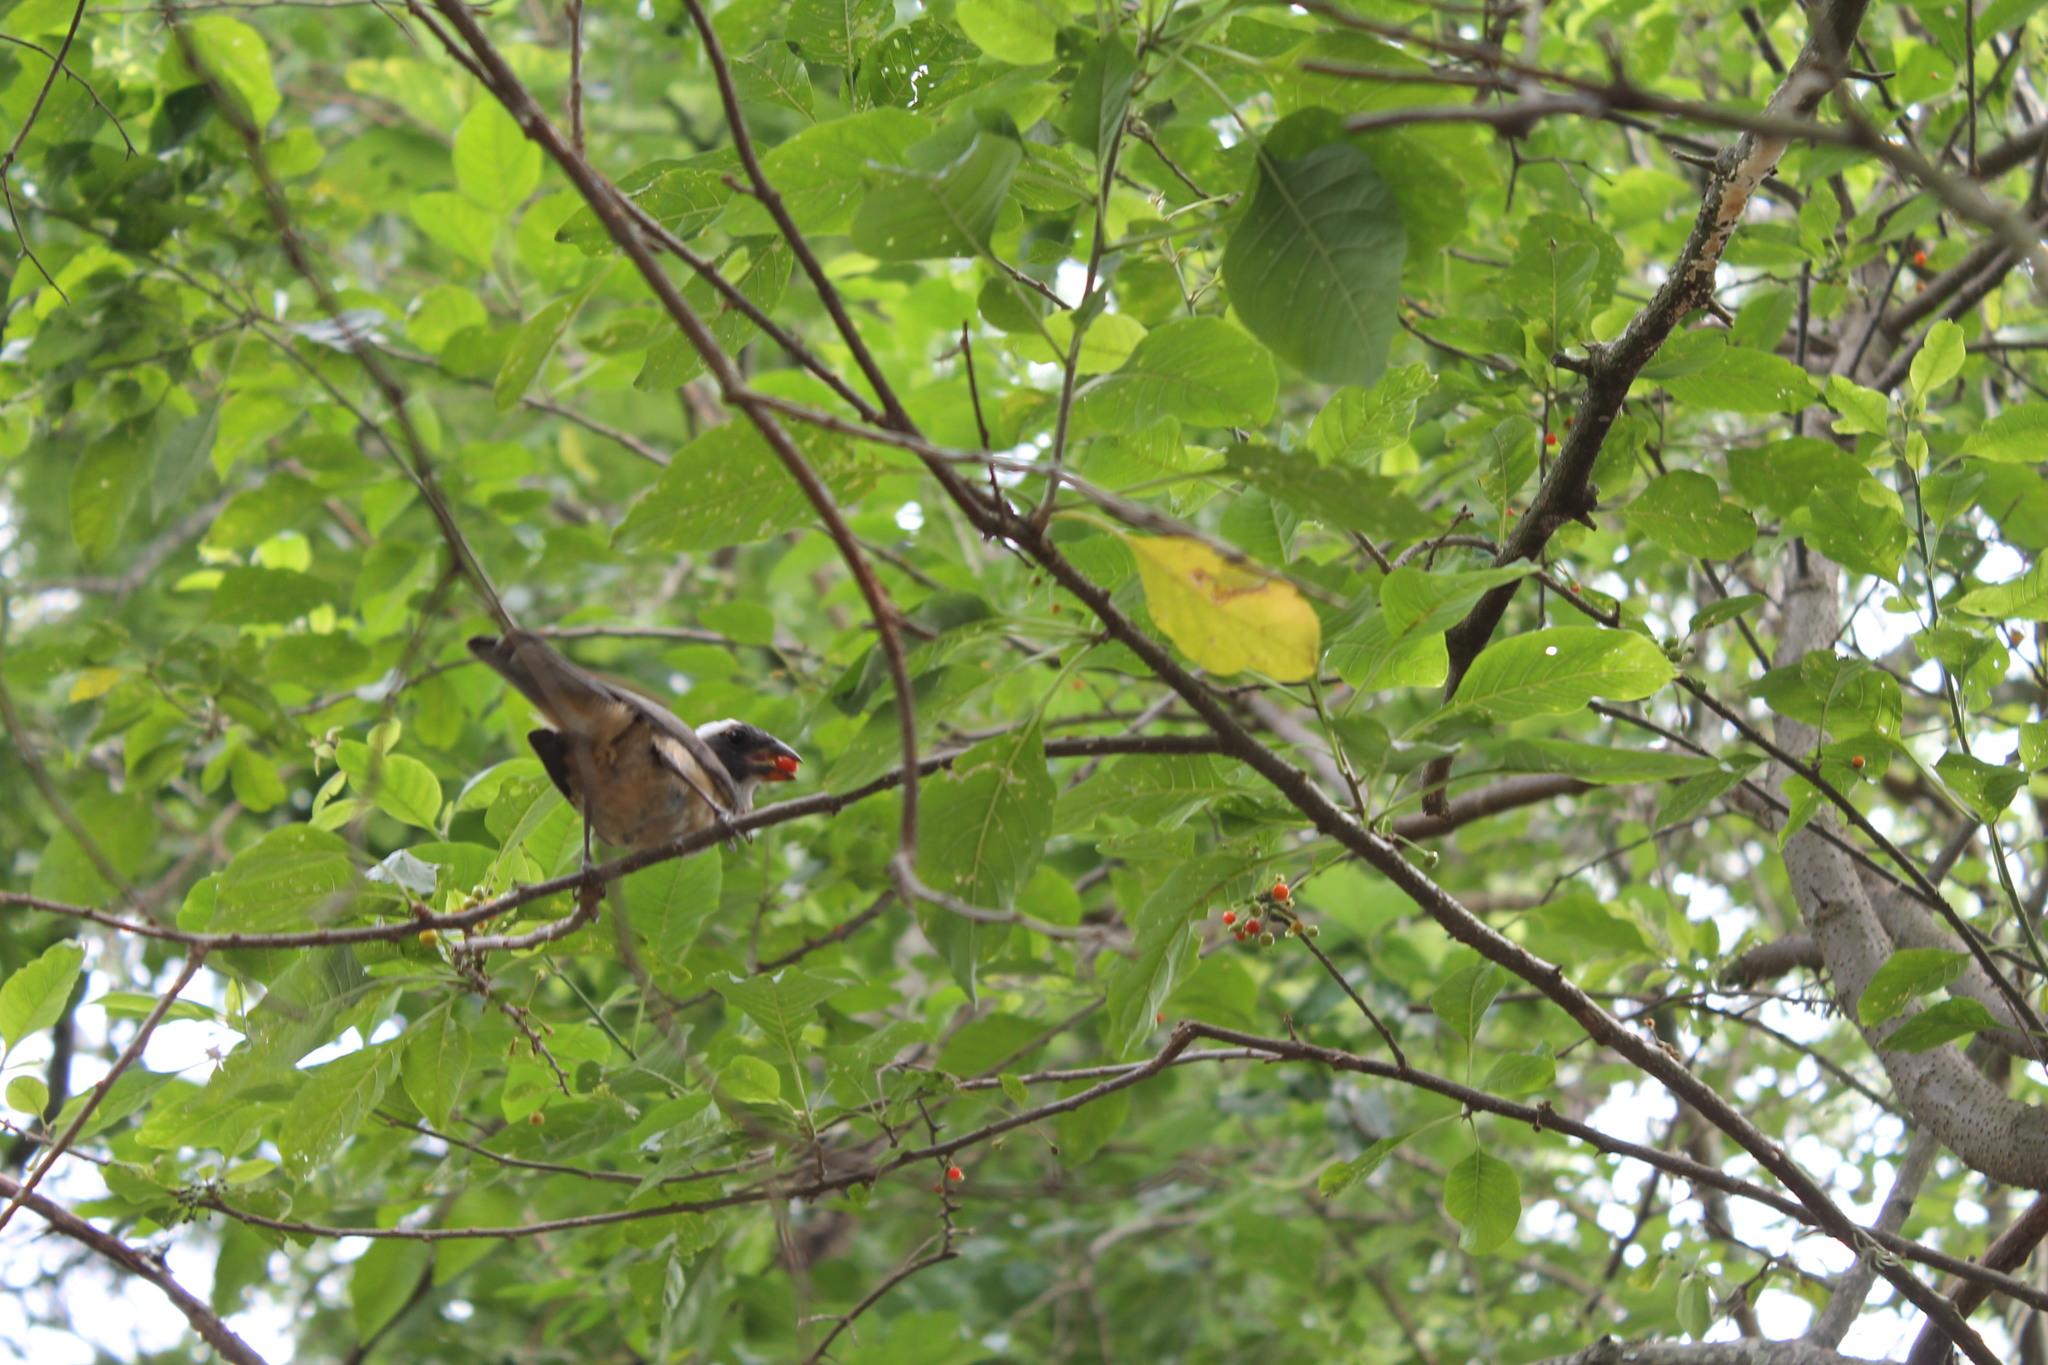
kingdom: Animalia
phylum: Chordata
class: Aves
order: Passeriformes
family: Thraupidae
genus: Saltator
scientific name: Saltator coerulescens
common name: Grayish saltator
